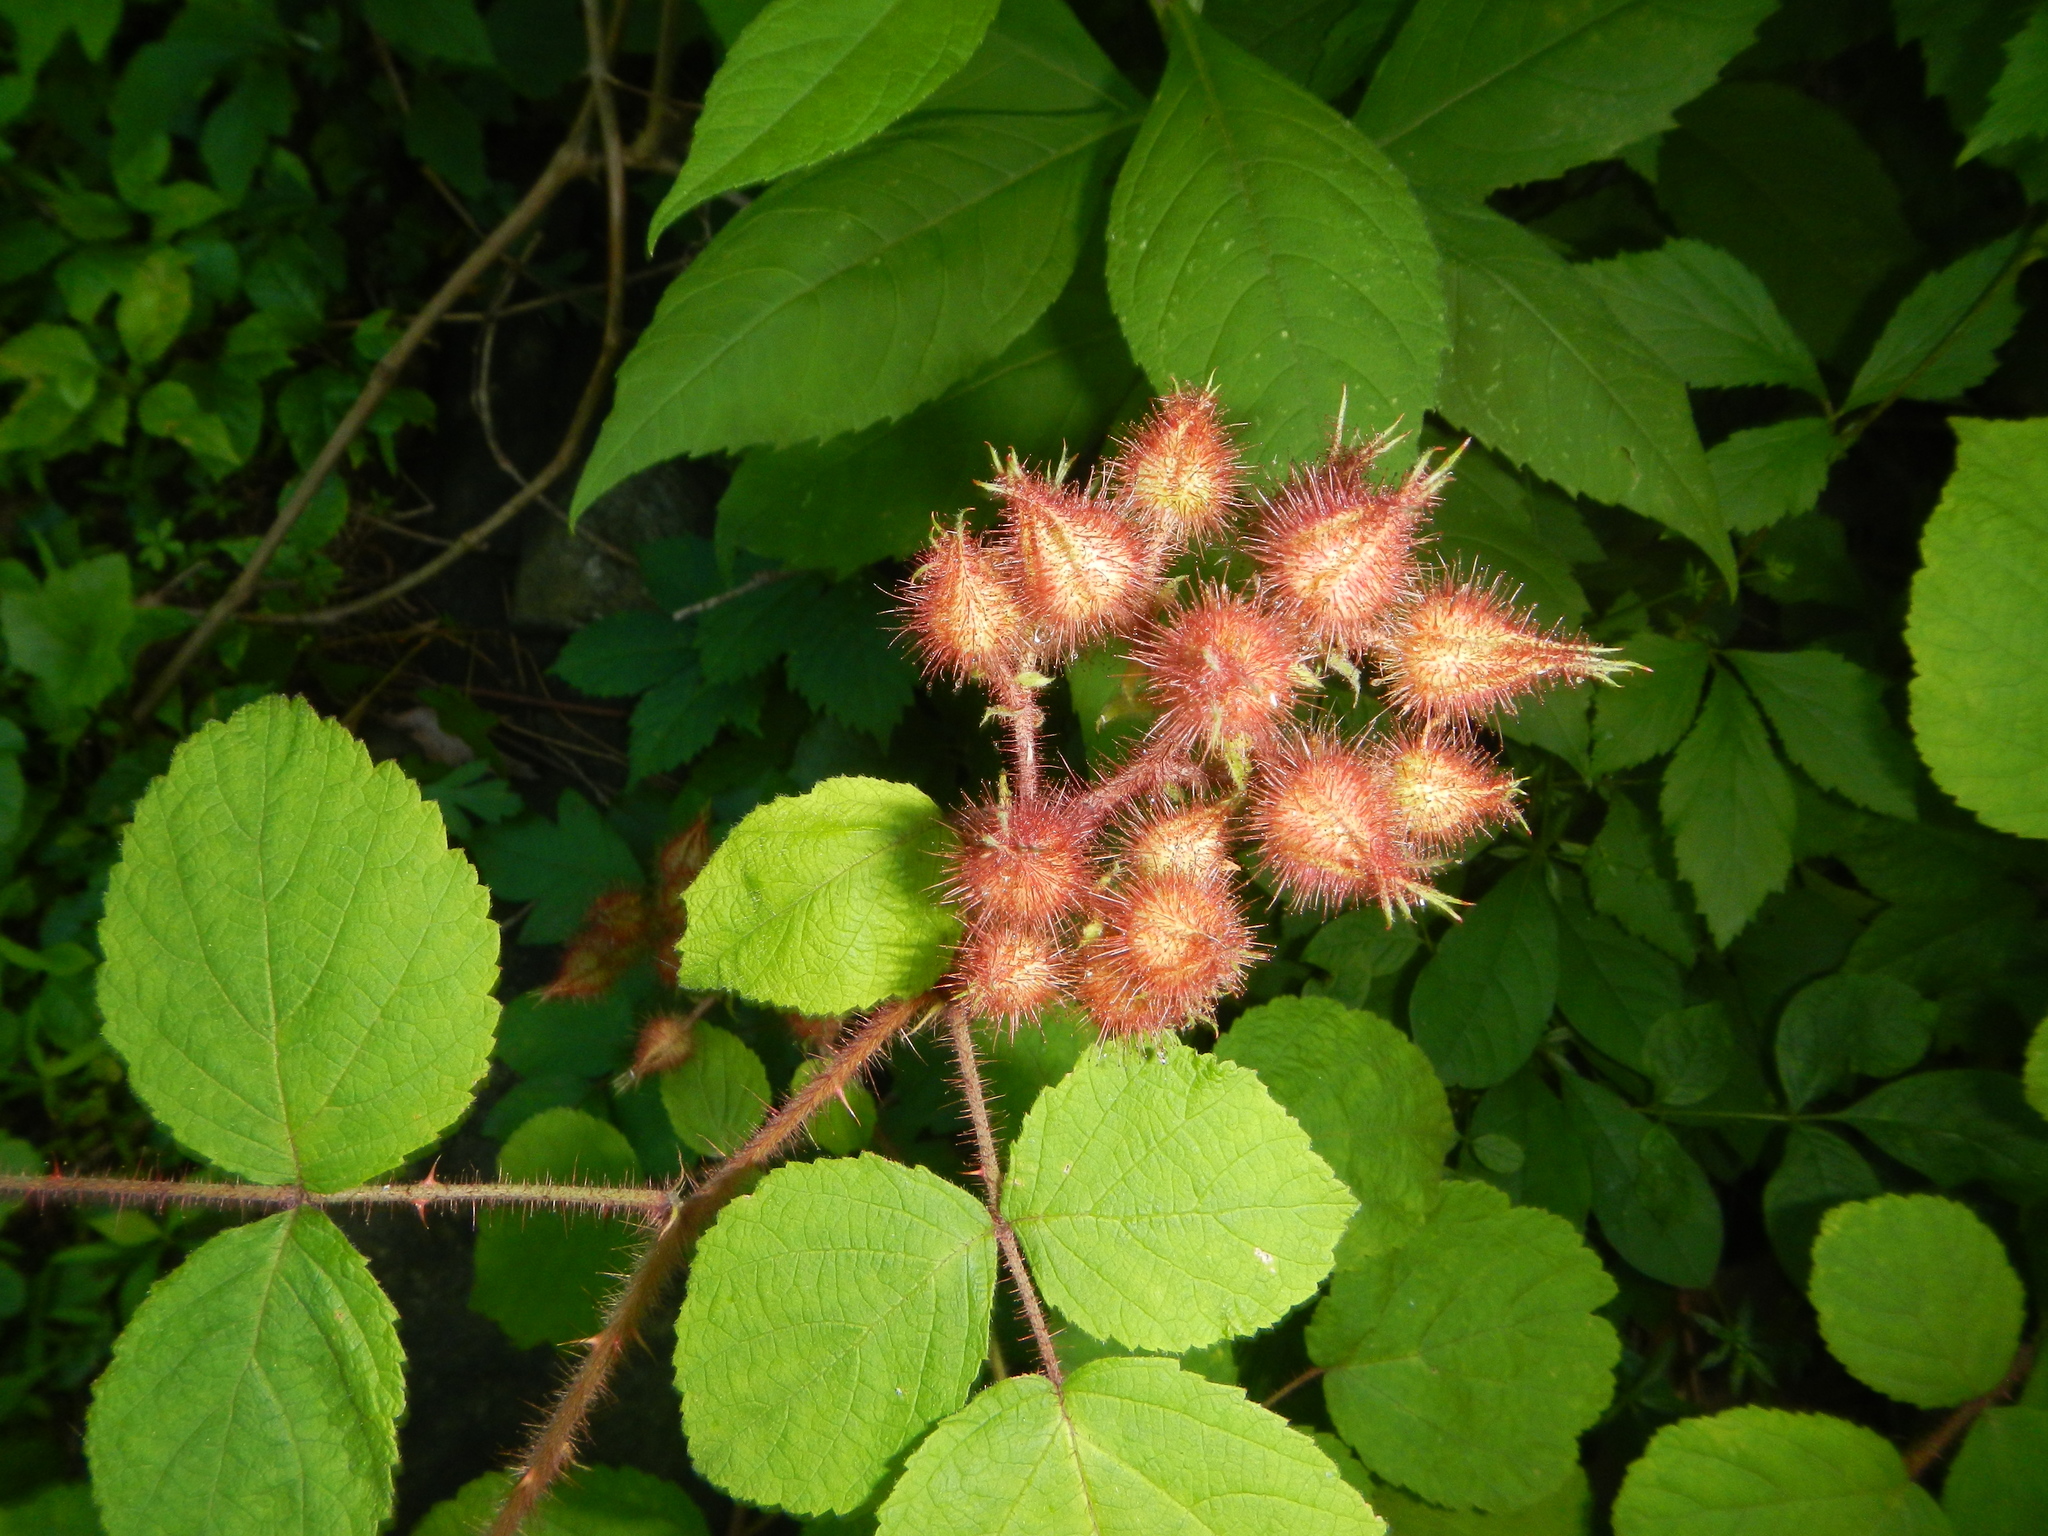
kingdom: Plantae
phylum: Tracheophyta
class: Magnoliopsida
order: Rosales
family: Rosaceae
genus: Rubus
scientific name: Rubus phoenicolasius
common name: Japanese wineberry
